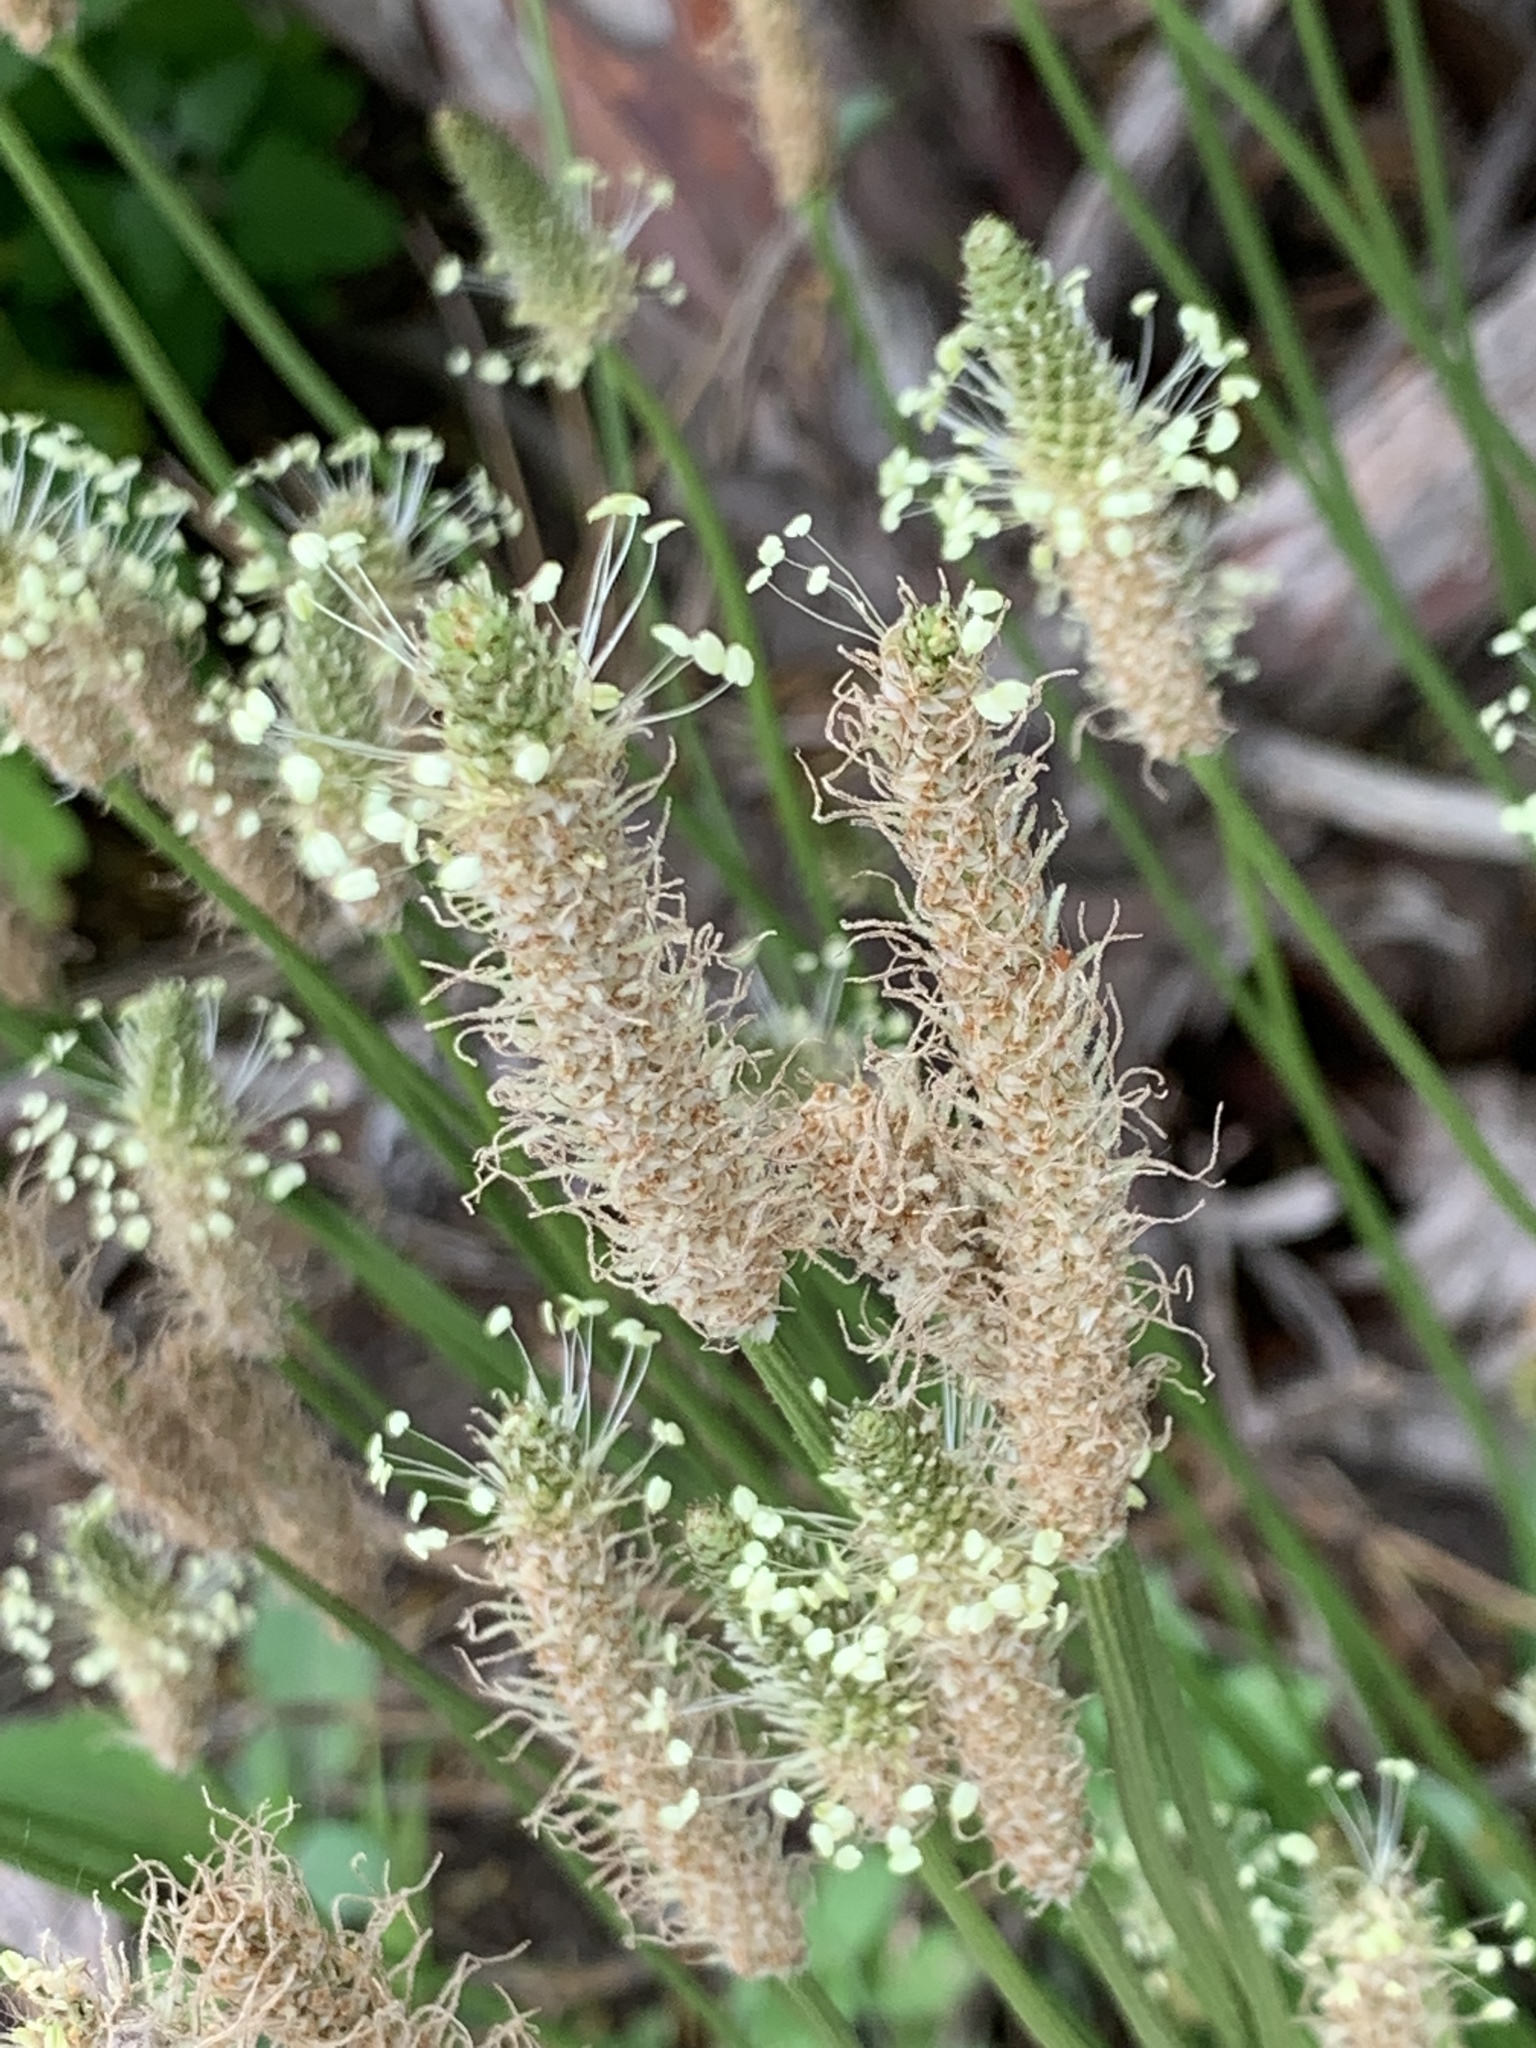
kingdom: Plantae
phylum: Tracheophyta
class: Magnoliopsida
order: Lamiales
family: Plantaginaceae
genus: Plantago
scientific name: Plantago lanceolata
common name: Ribwort plantain
